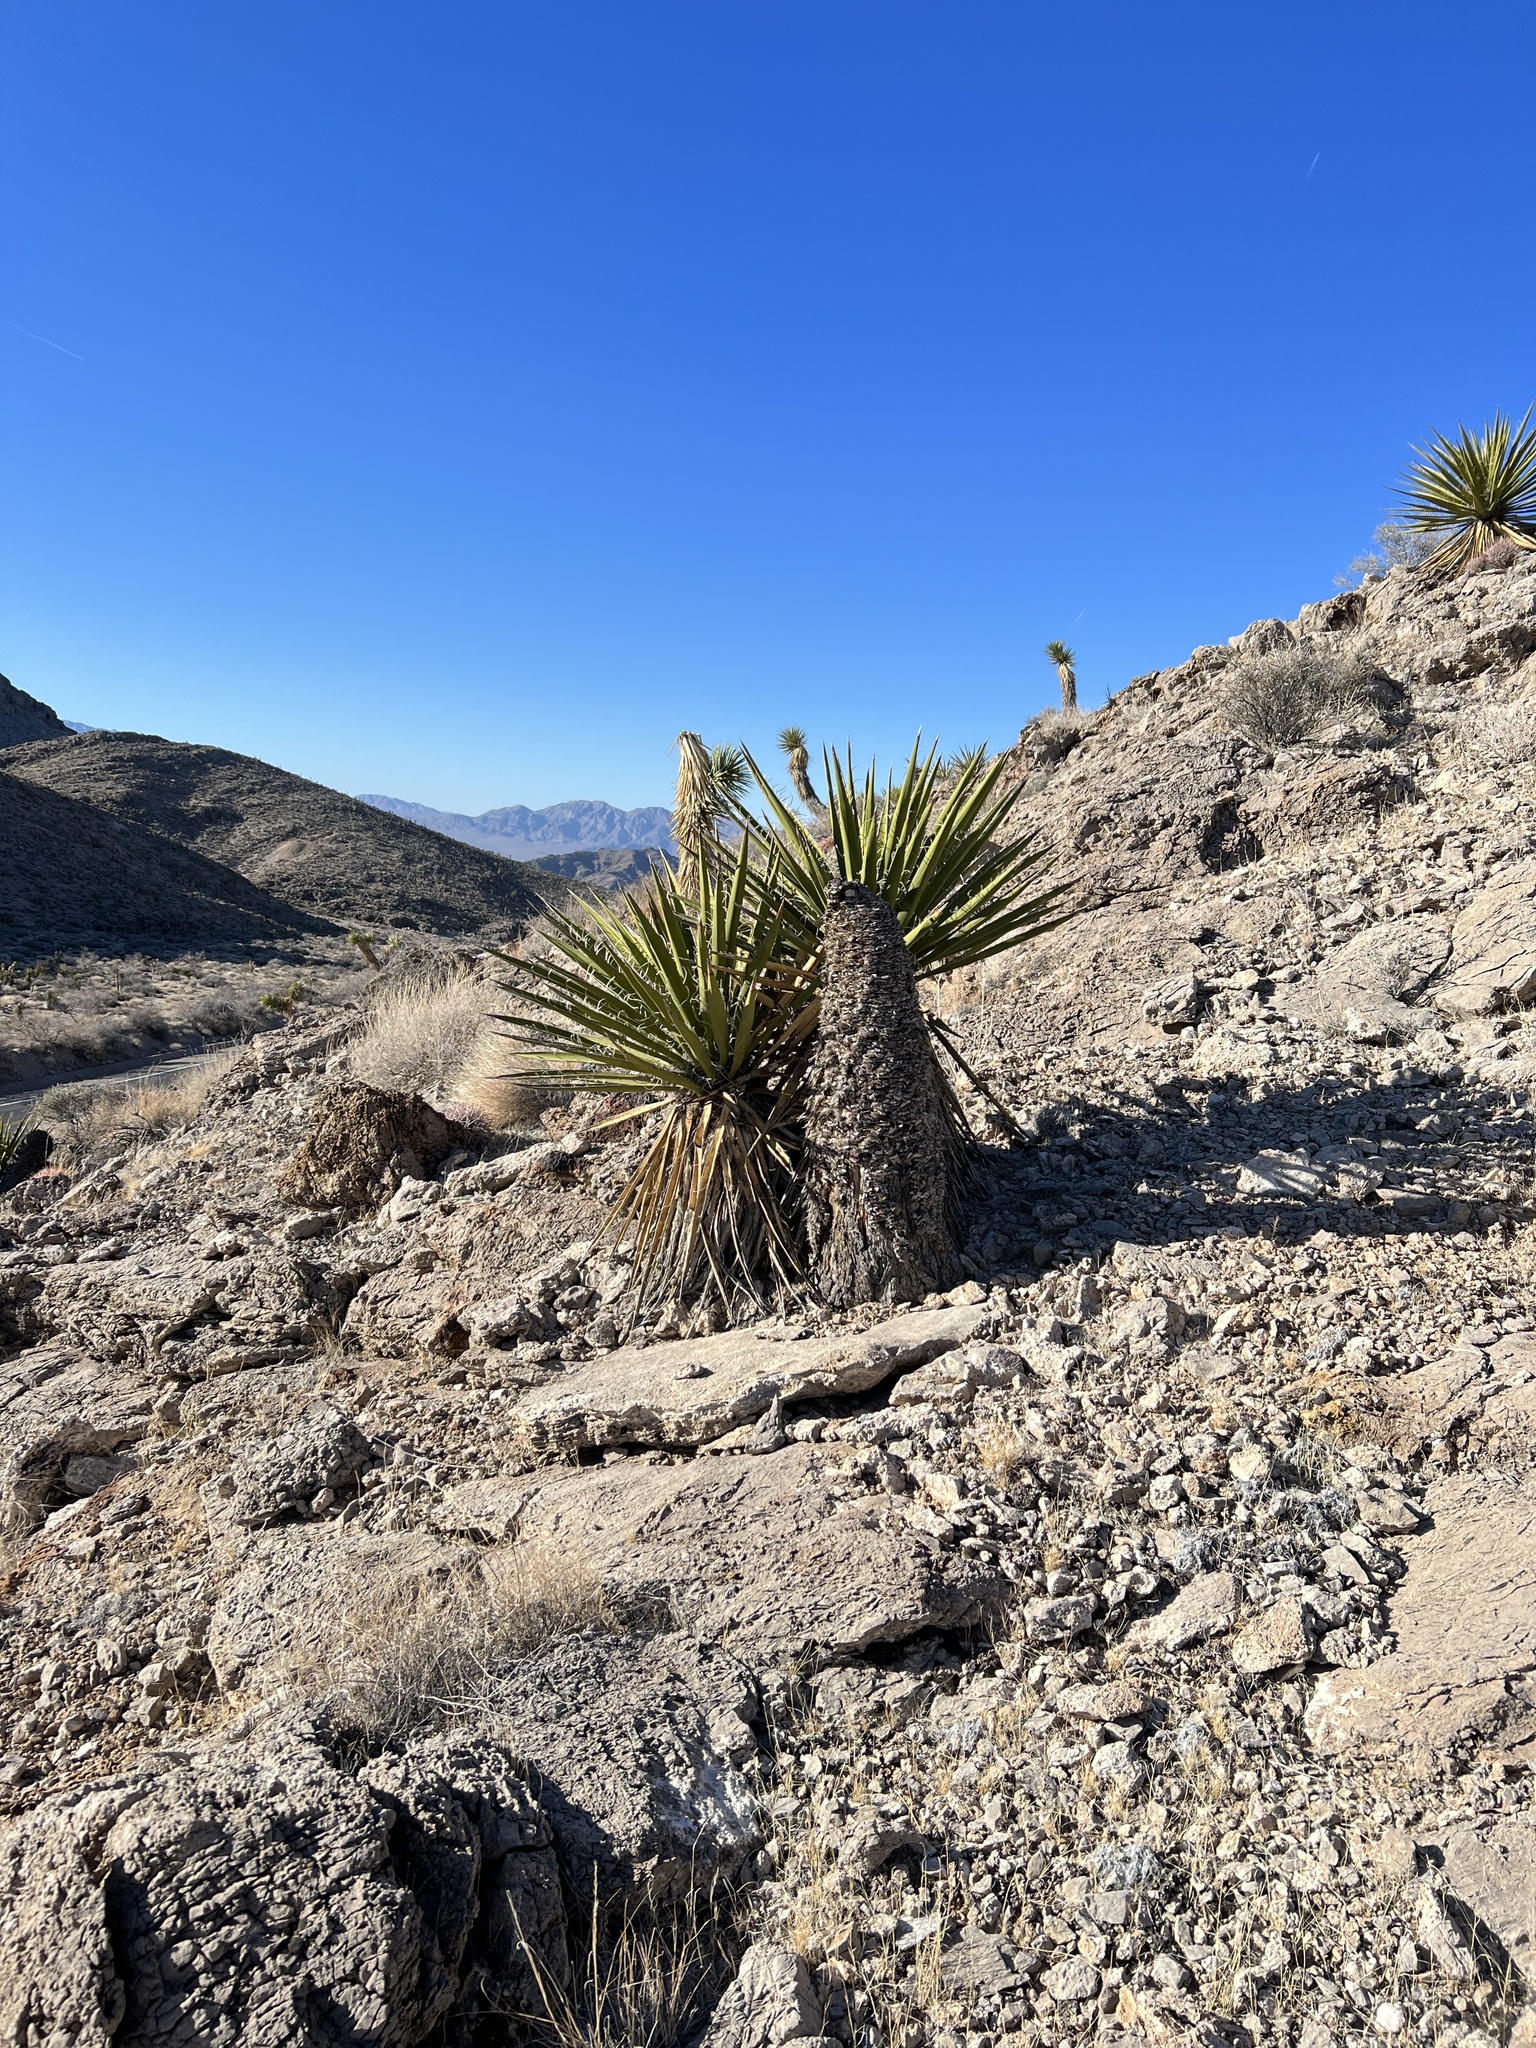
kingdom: Plantae
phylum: Tracheophyta
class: Liliopsida
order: Asparagales
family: Asparagaceae
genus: Yucca
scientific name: Yucca schidigera
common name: Mojave yucca
